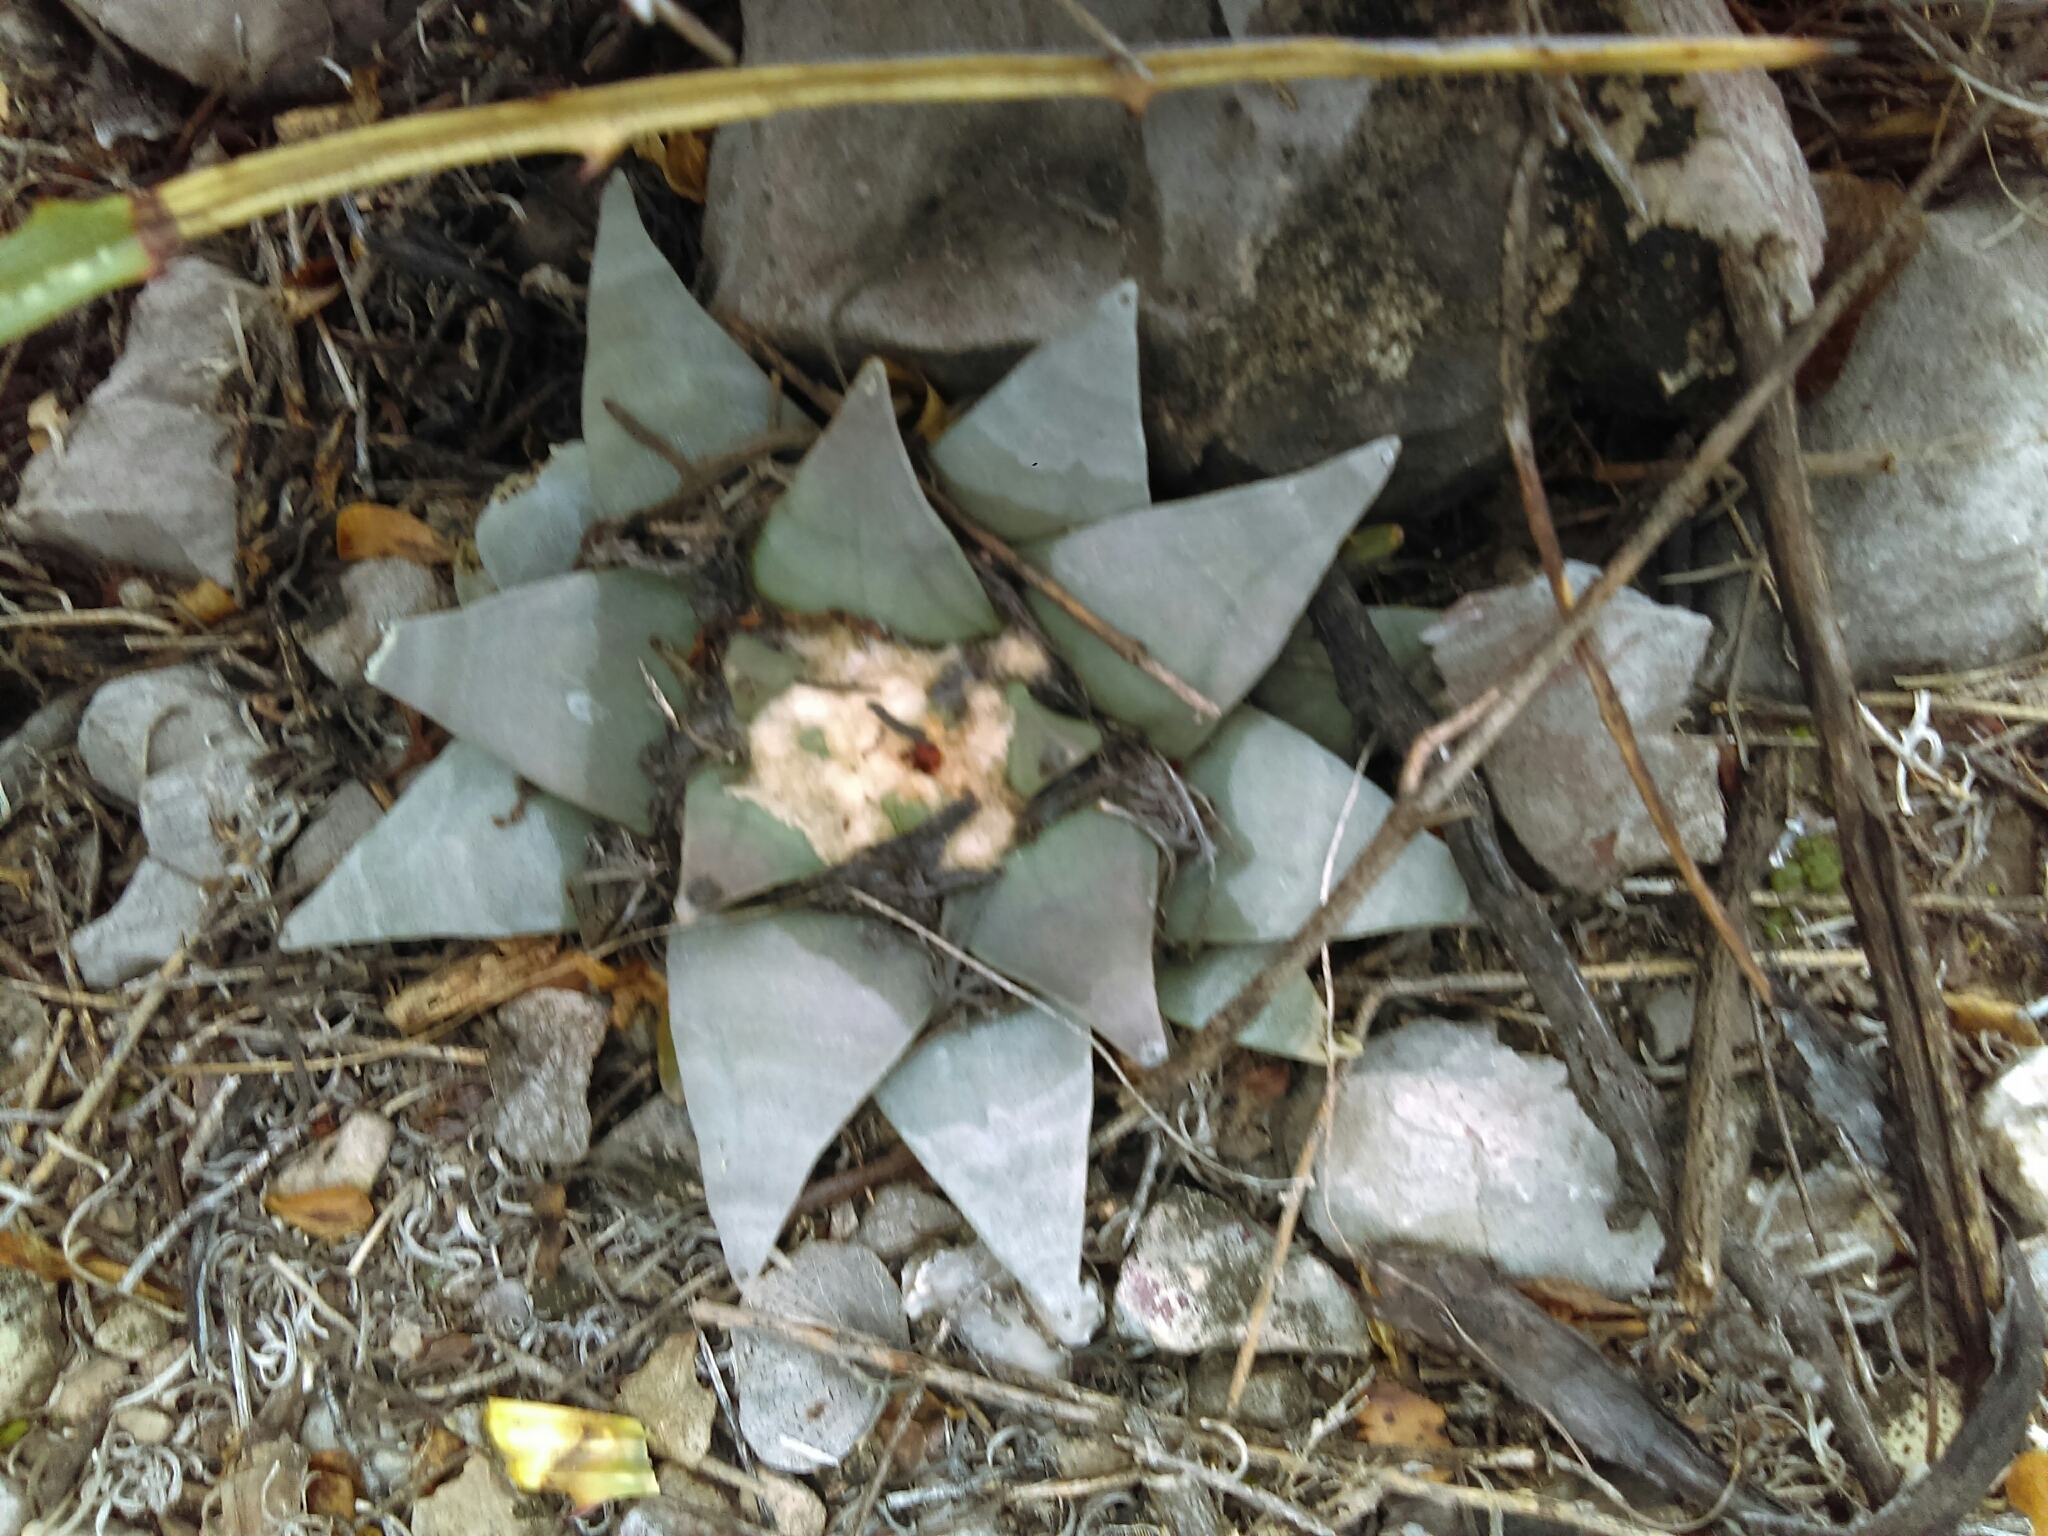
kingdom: Plantae
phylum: Tracheophyta
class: Magnoliopsida
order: Caryophyllales
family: Cactaceae
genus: Ariocarpus
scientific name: Ariocarpus retusus
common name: Seven stars
